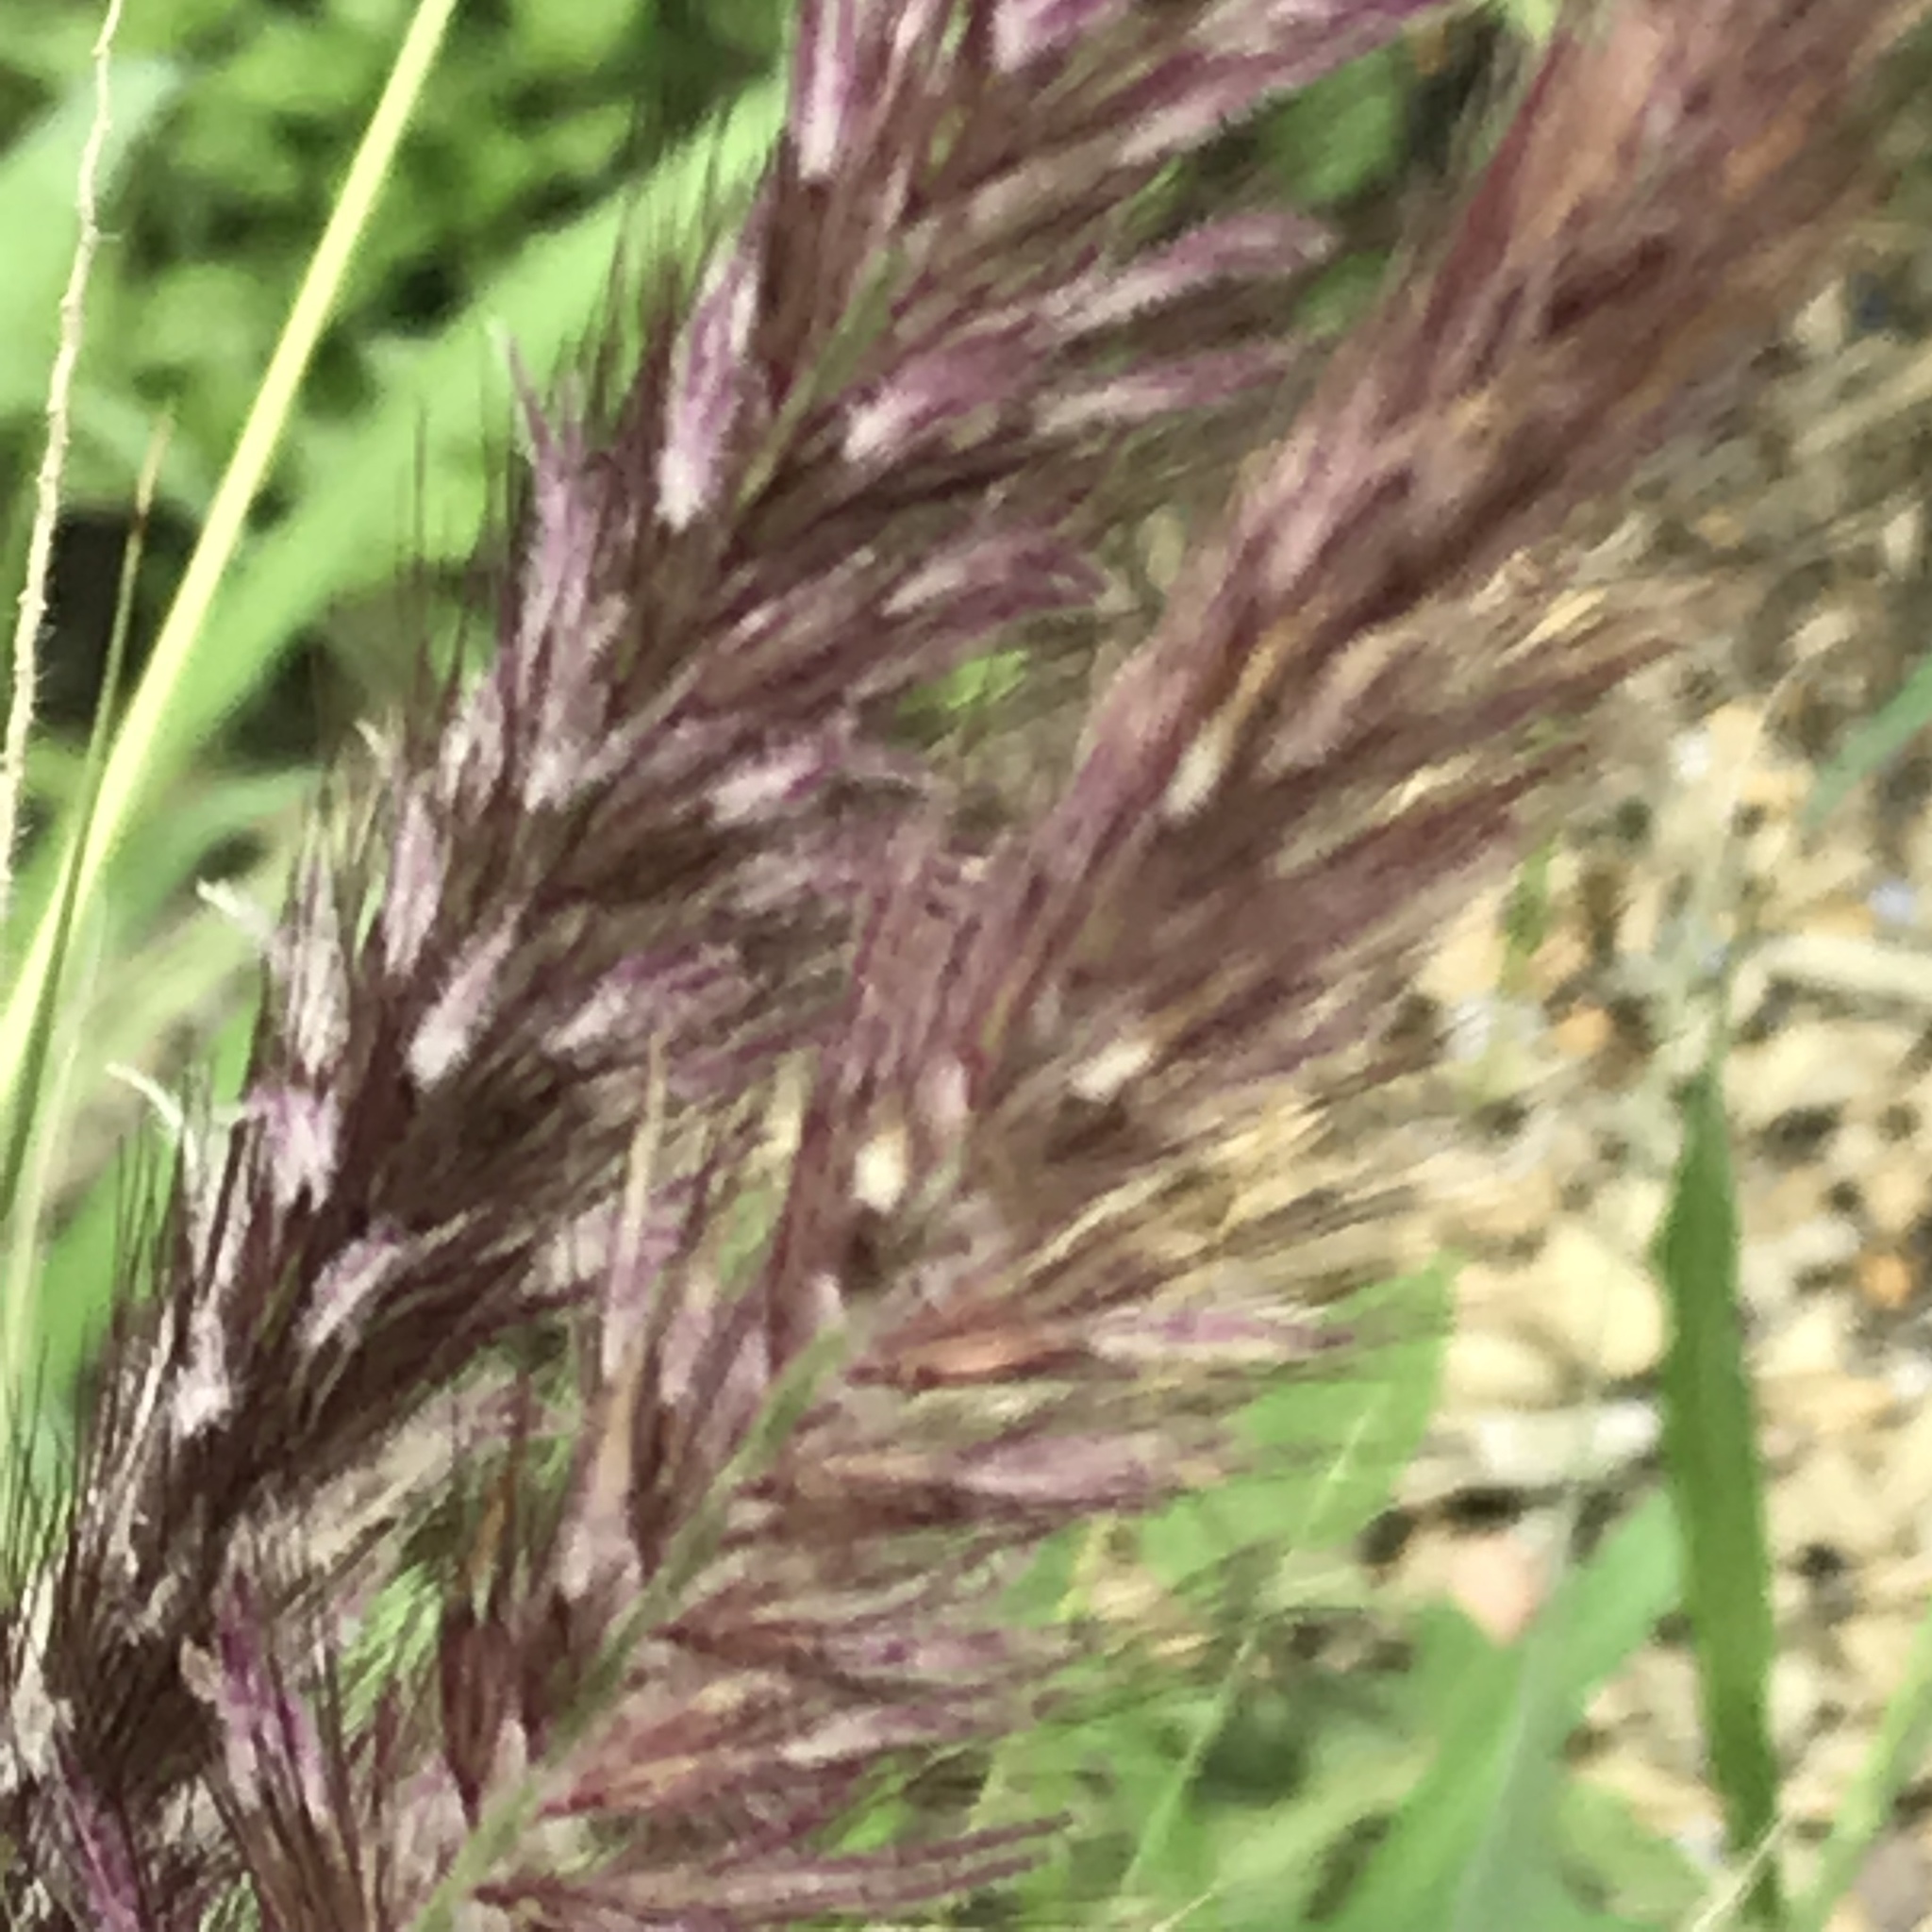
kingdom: Plantae
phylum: Tracheophyta
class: Liliopsida
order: Poales
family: Poaceae
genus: Cenchrus
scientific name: Cenchrus setaceus
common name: Crimson fountaingrass
